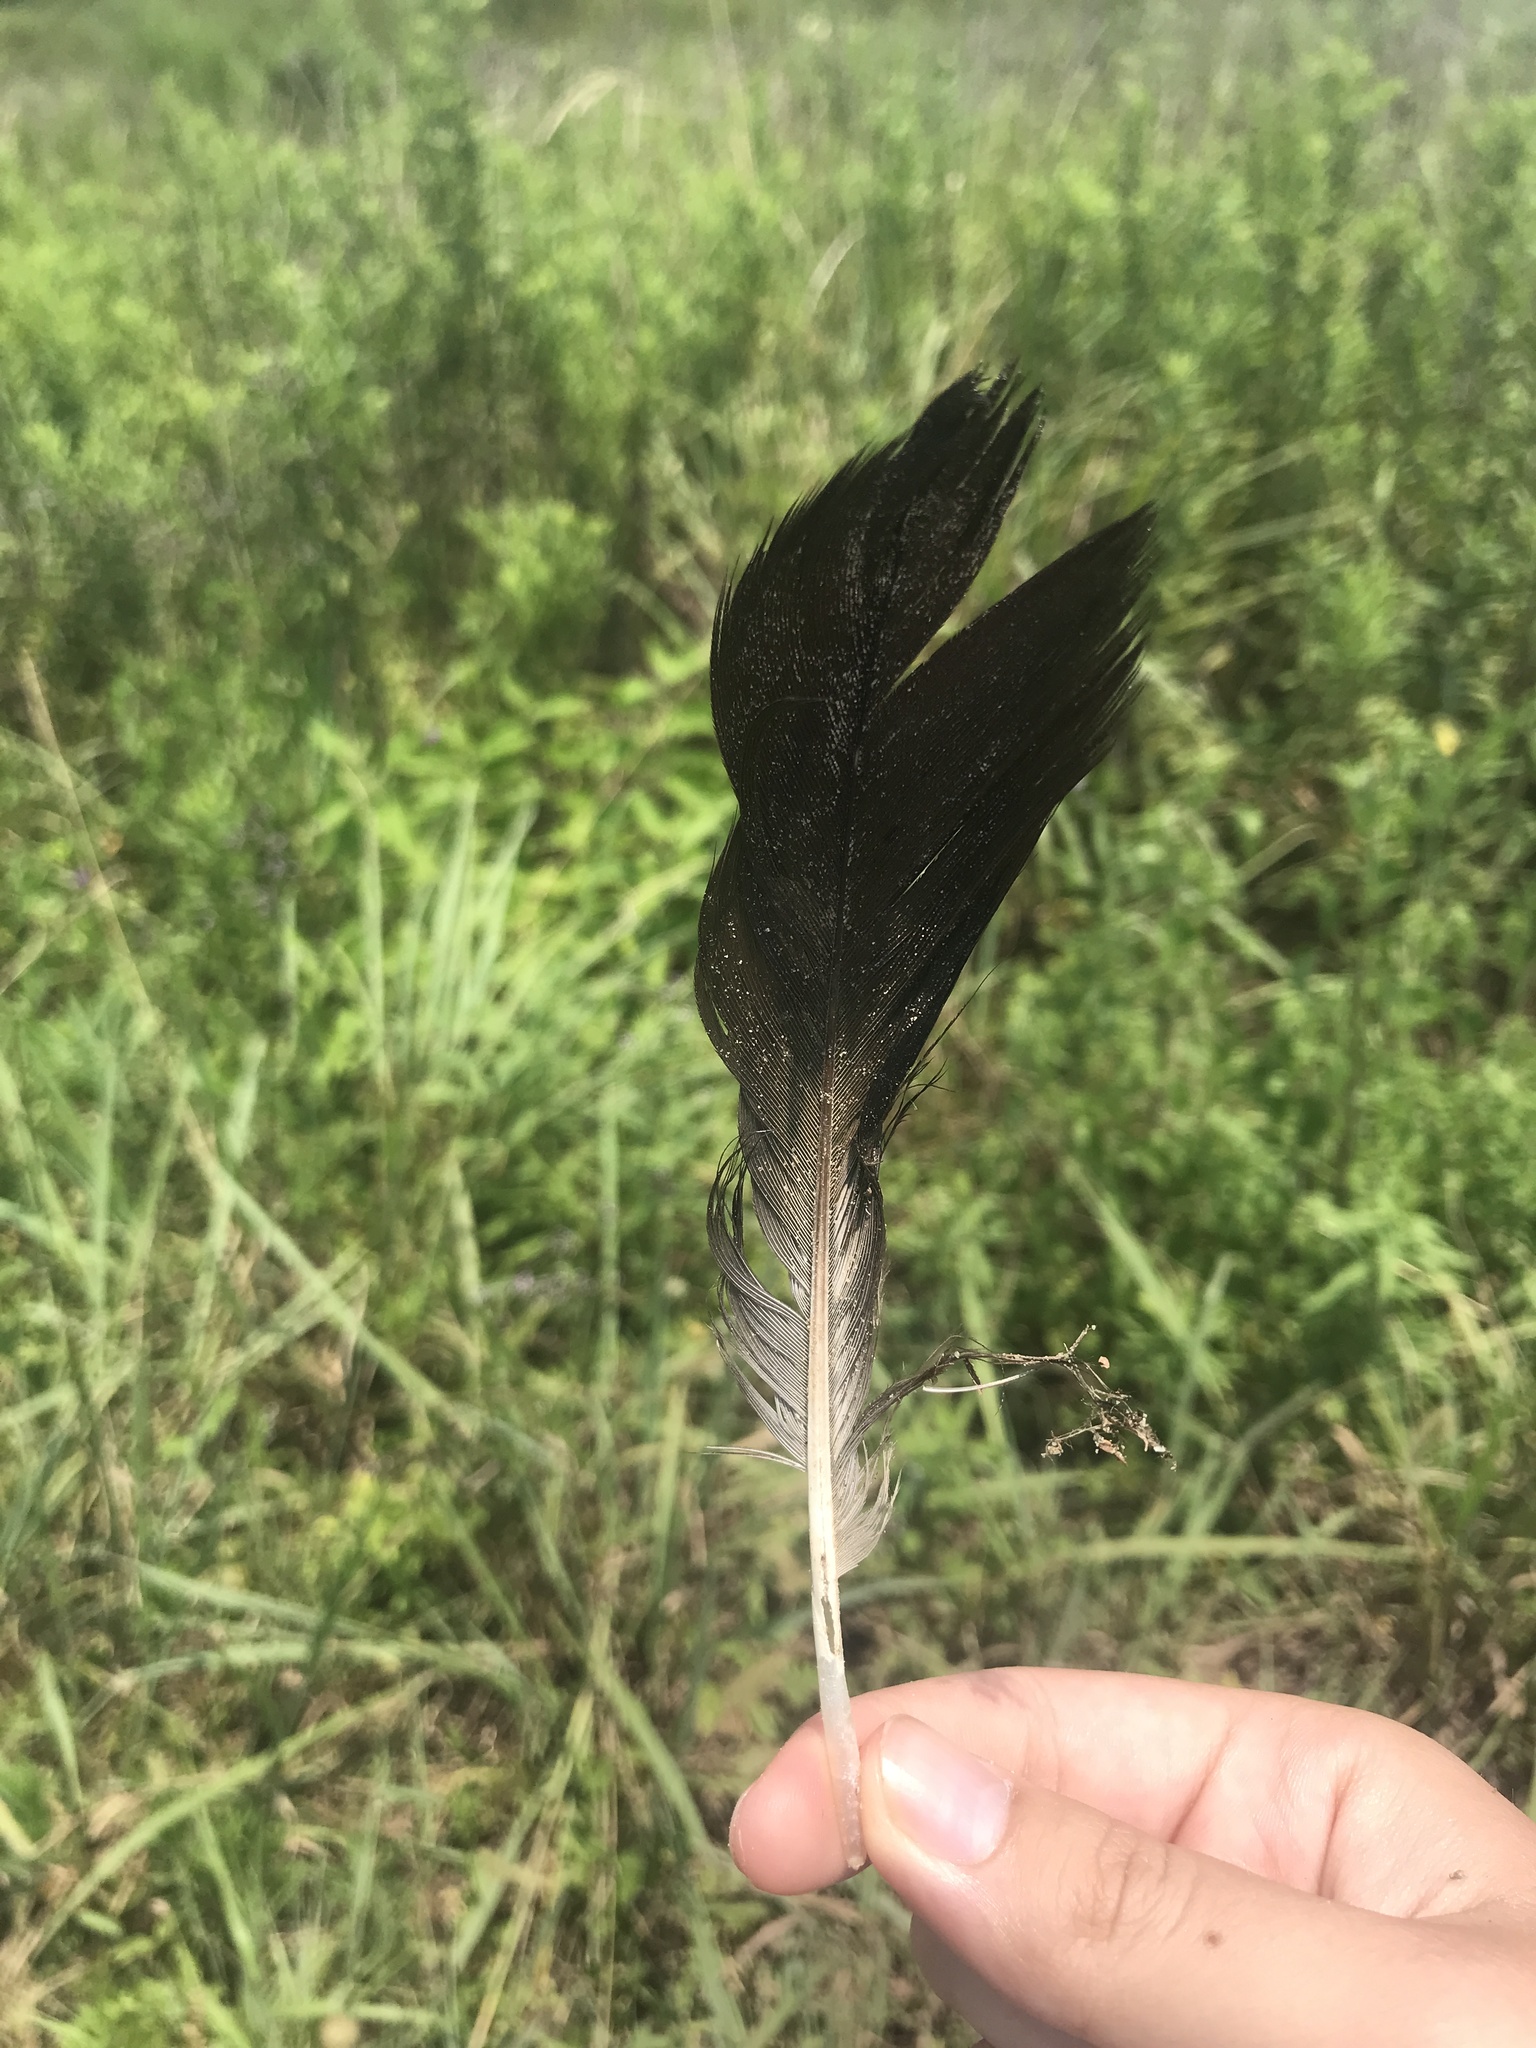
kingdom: Animalia
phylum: Chordata
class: Aves
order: Accipitriformes
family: Cathartidae
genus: Coragyps
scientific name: Coragyps atratus
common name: Black vulture
